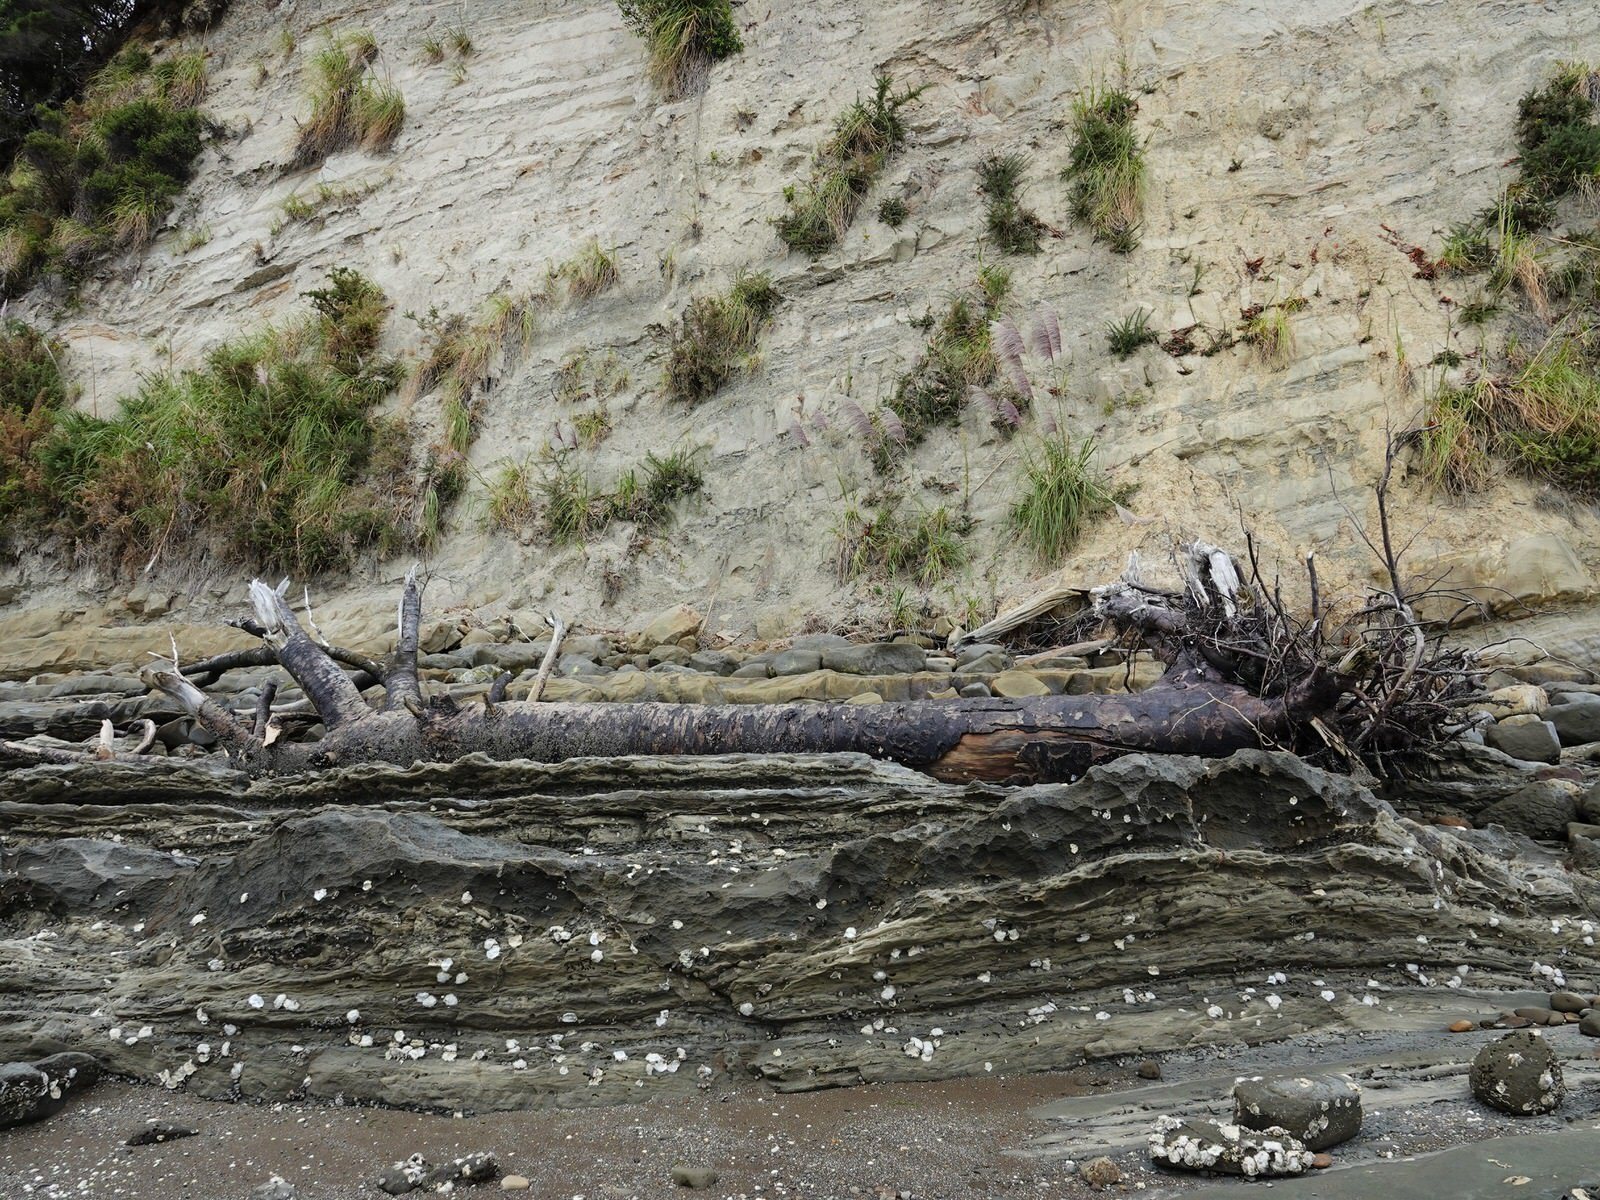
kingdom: Plantae
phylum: Tracheophyta
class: Pinopsida
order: Pinales
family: Araucariaceae
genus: Agathis
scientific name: Agathis australis
